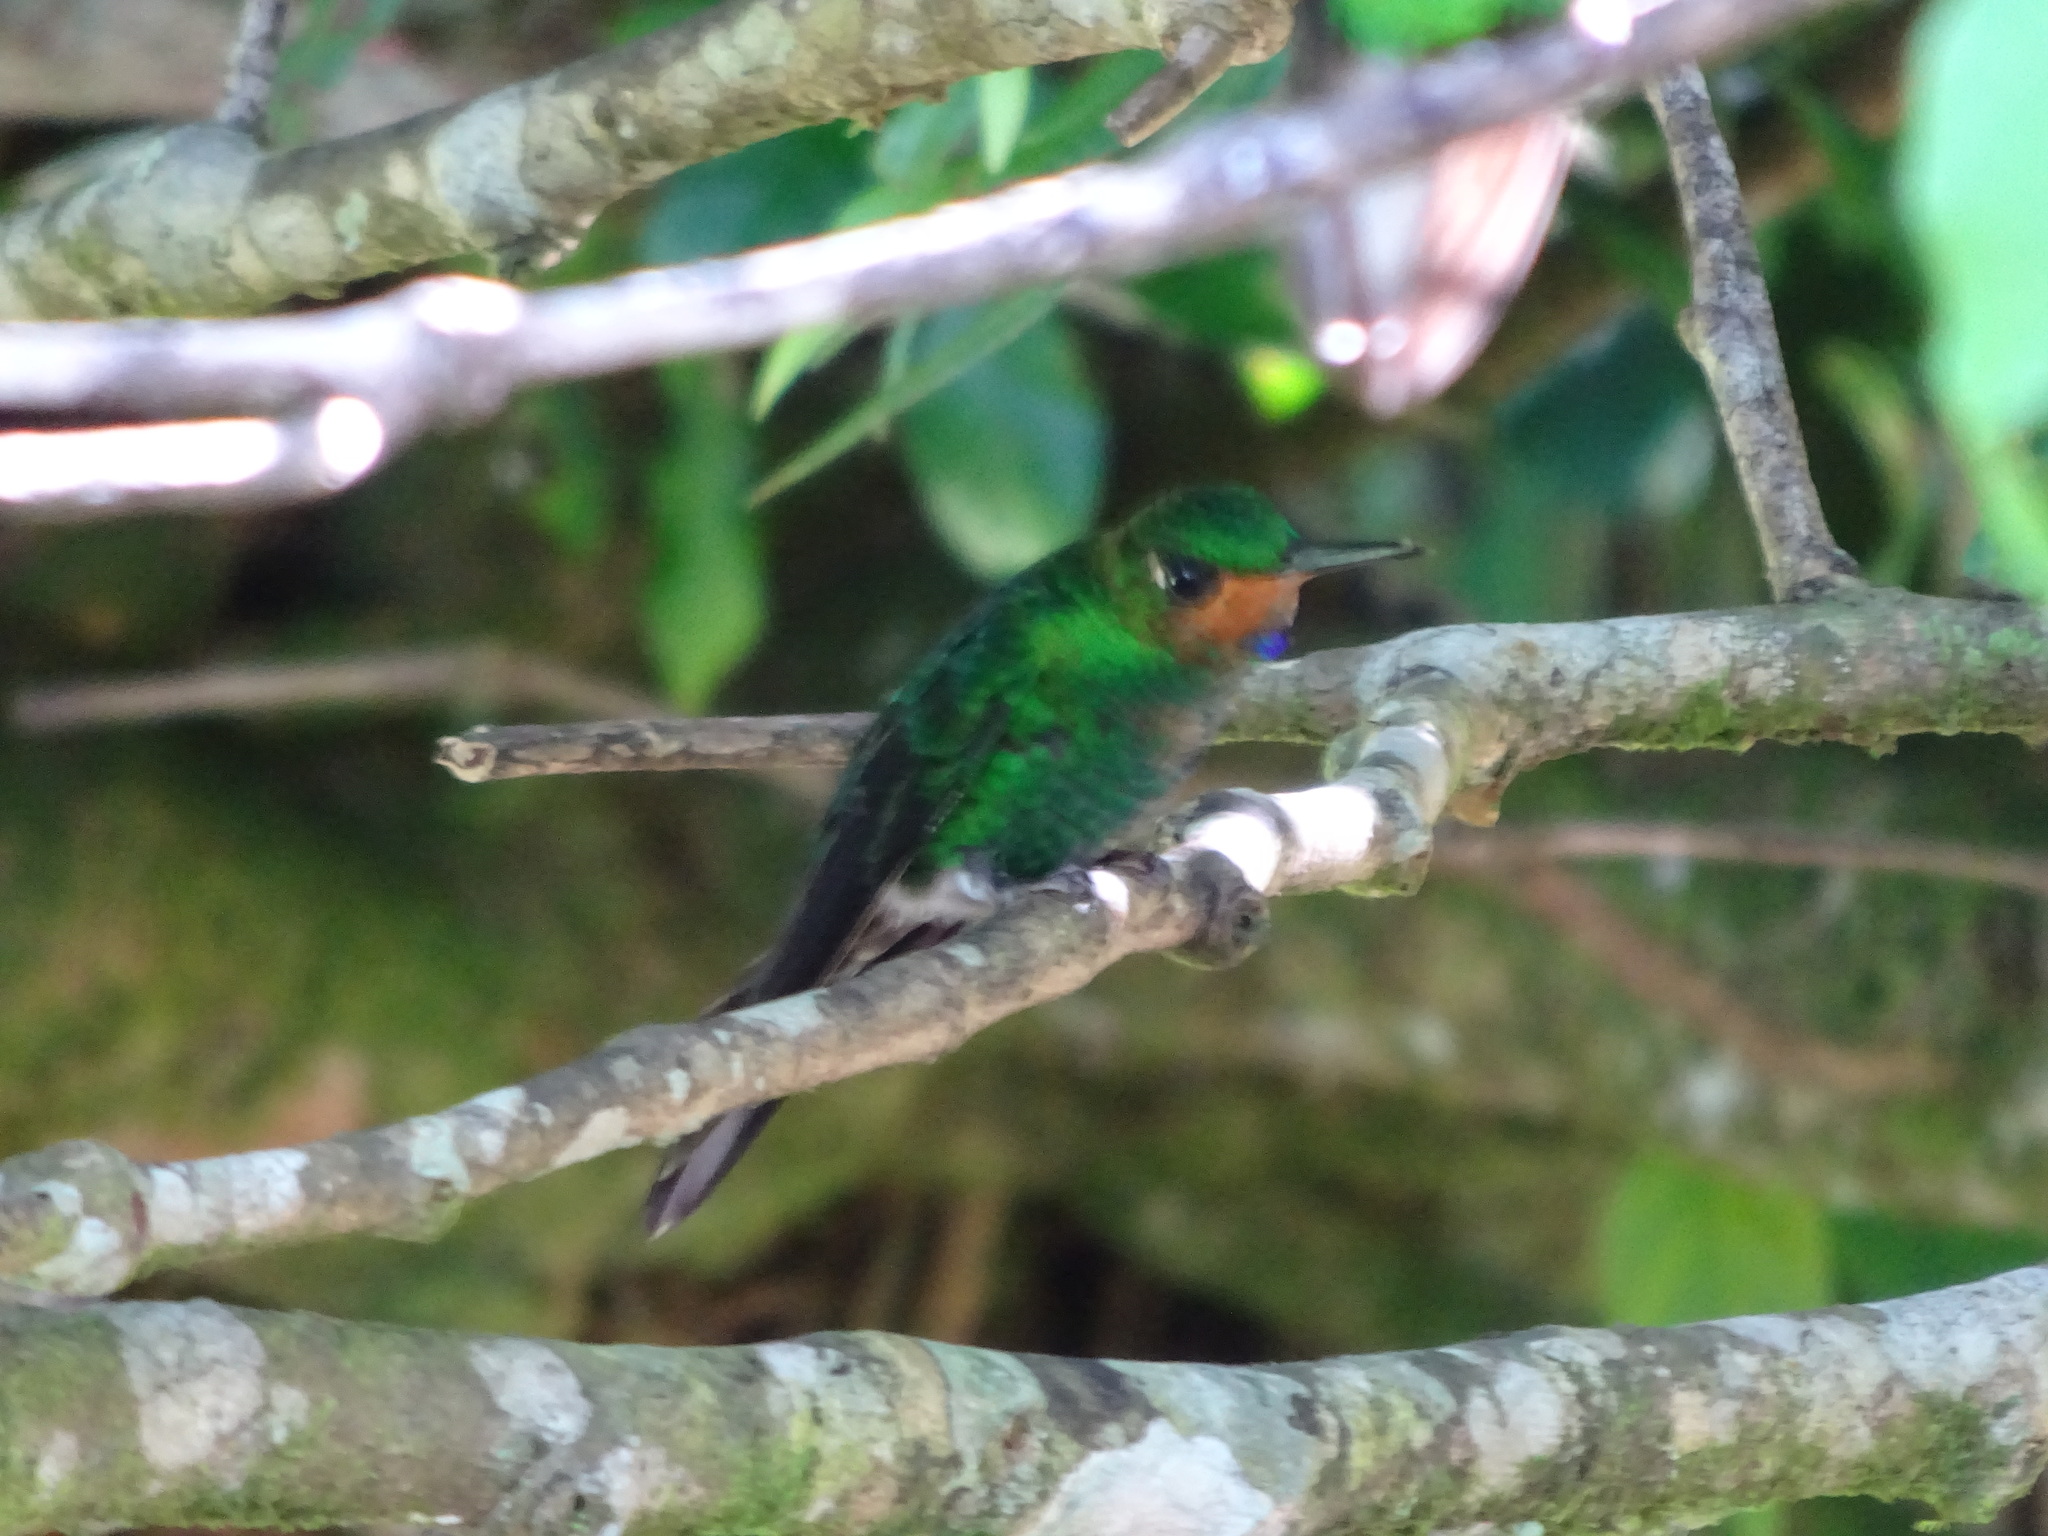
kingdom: Animalia
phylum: Chordata
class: Aves
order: Apodiformes
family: Trochilidae
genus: Heliodoxa
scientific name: Heliodoxa jacula
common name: Green-crowned brilliant
